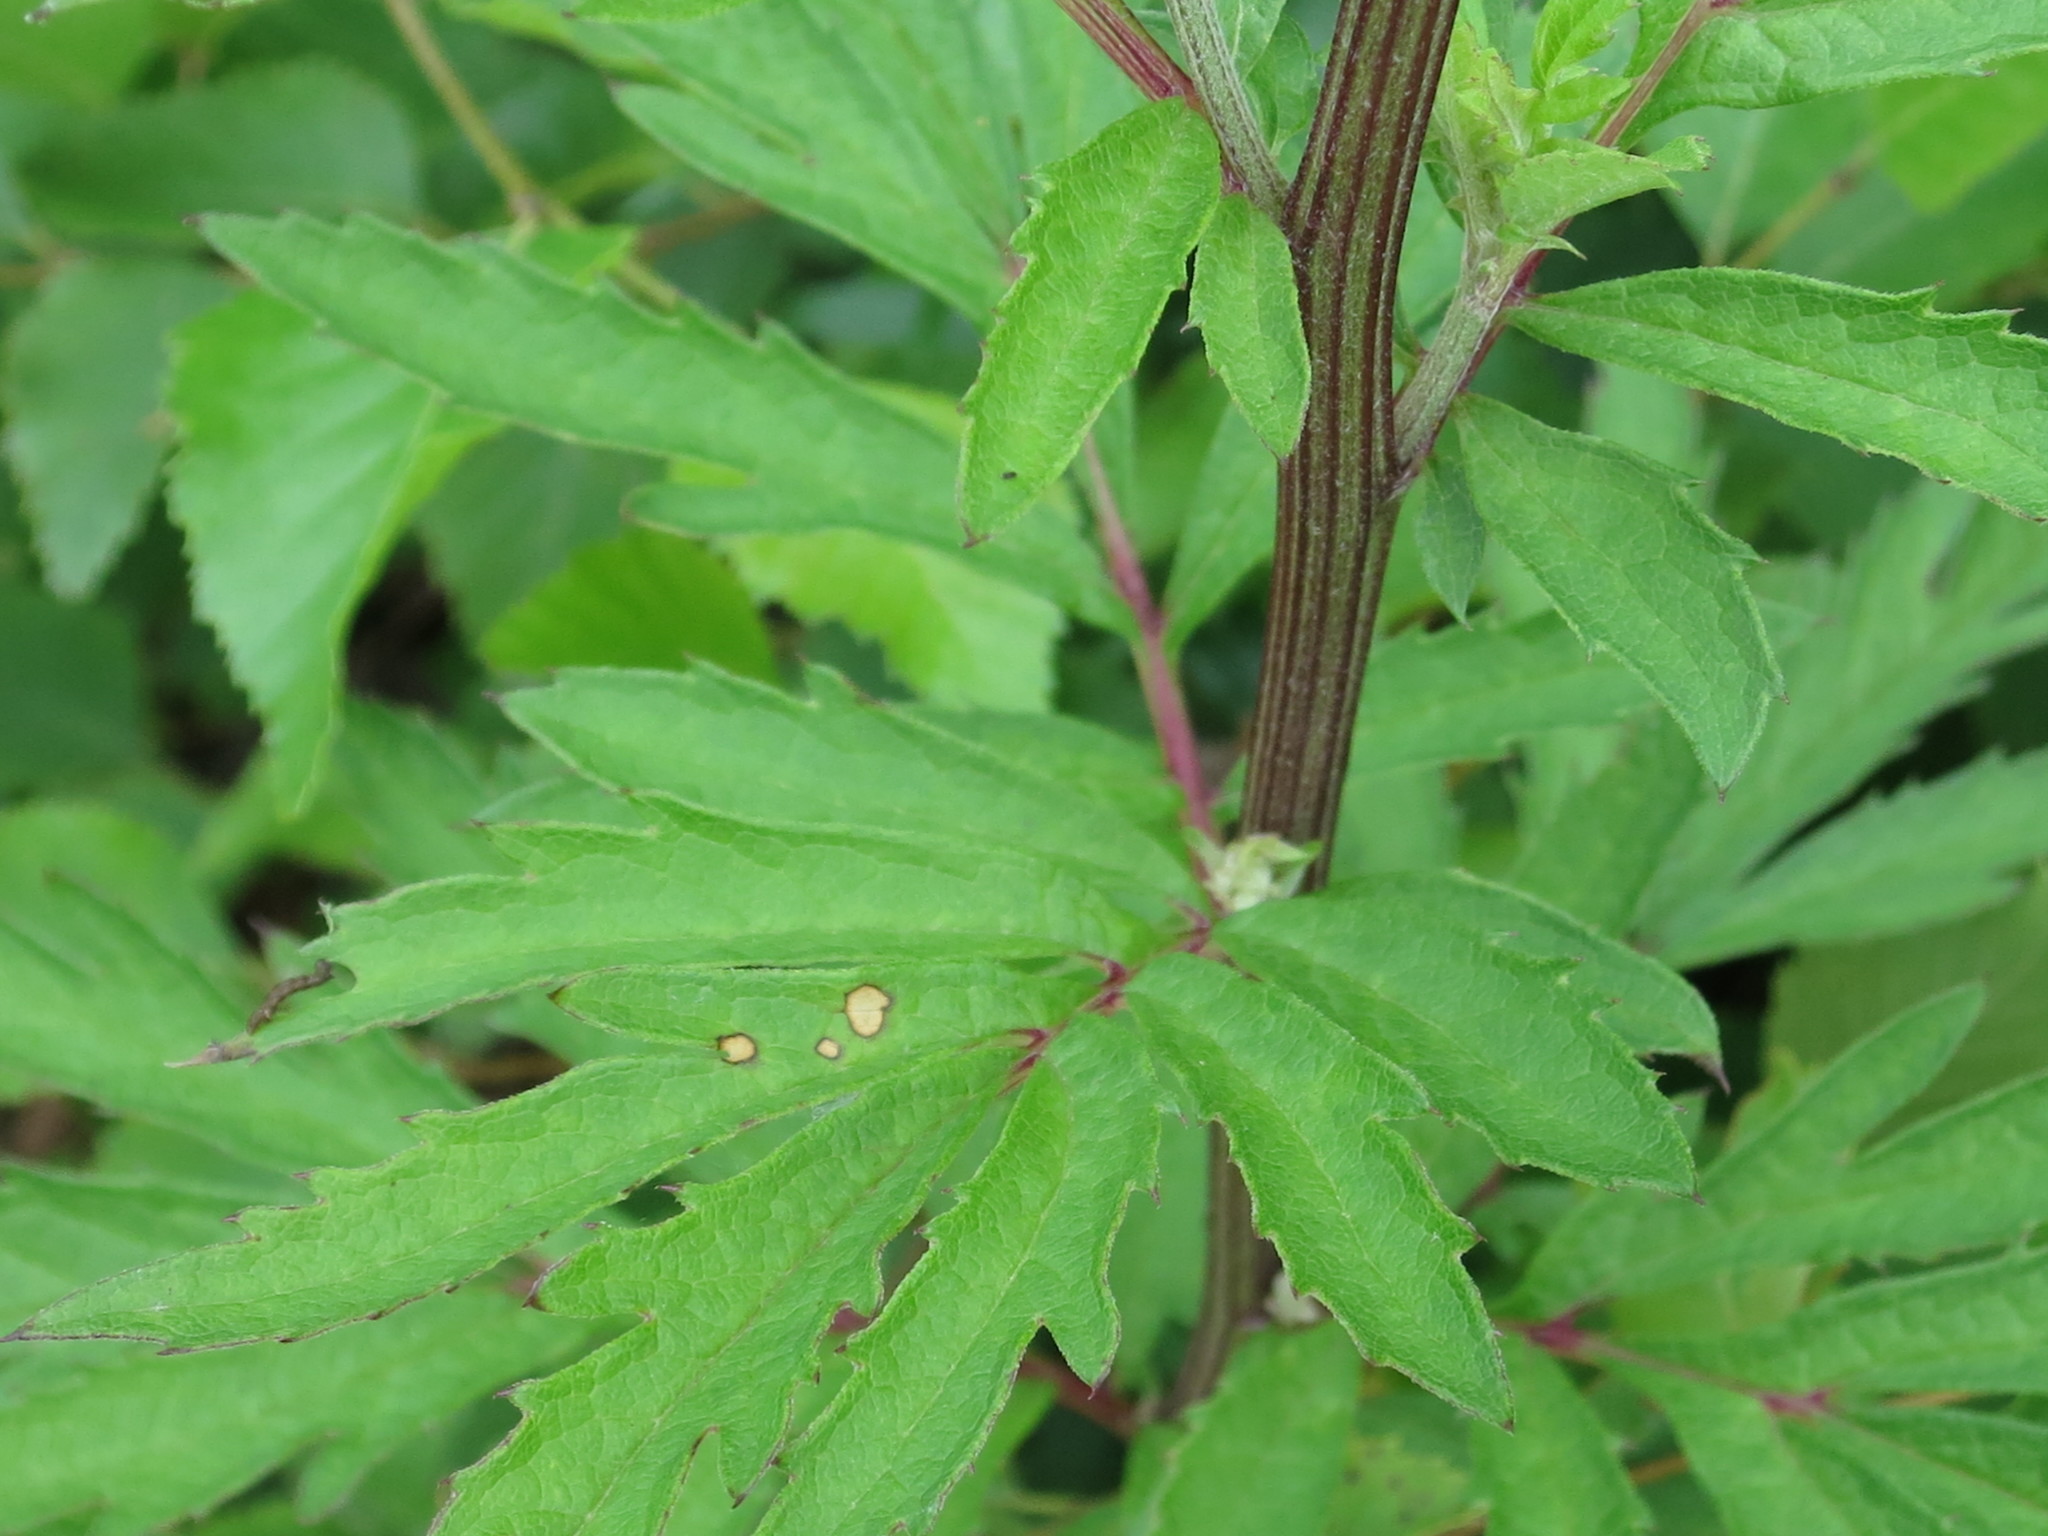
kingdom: Plantae
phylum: Tracheophyta
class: Magnoliopsida
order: Asterales
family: Asteraceae
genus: Serratula
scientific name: Serratula coronata
